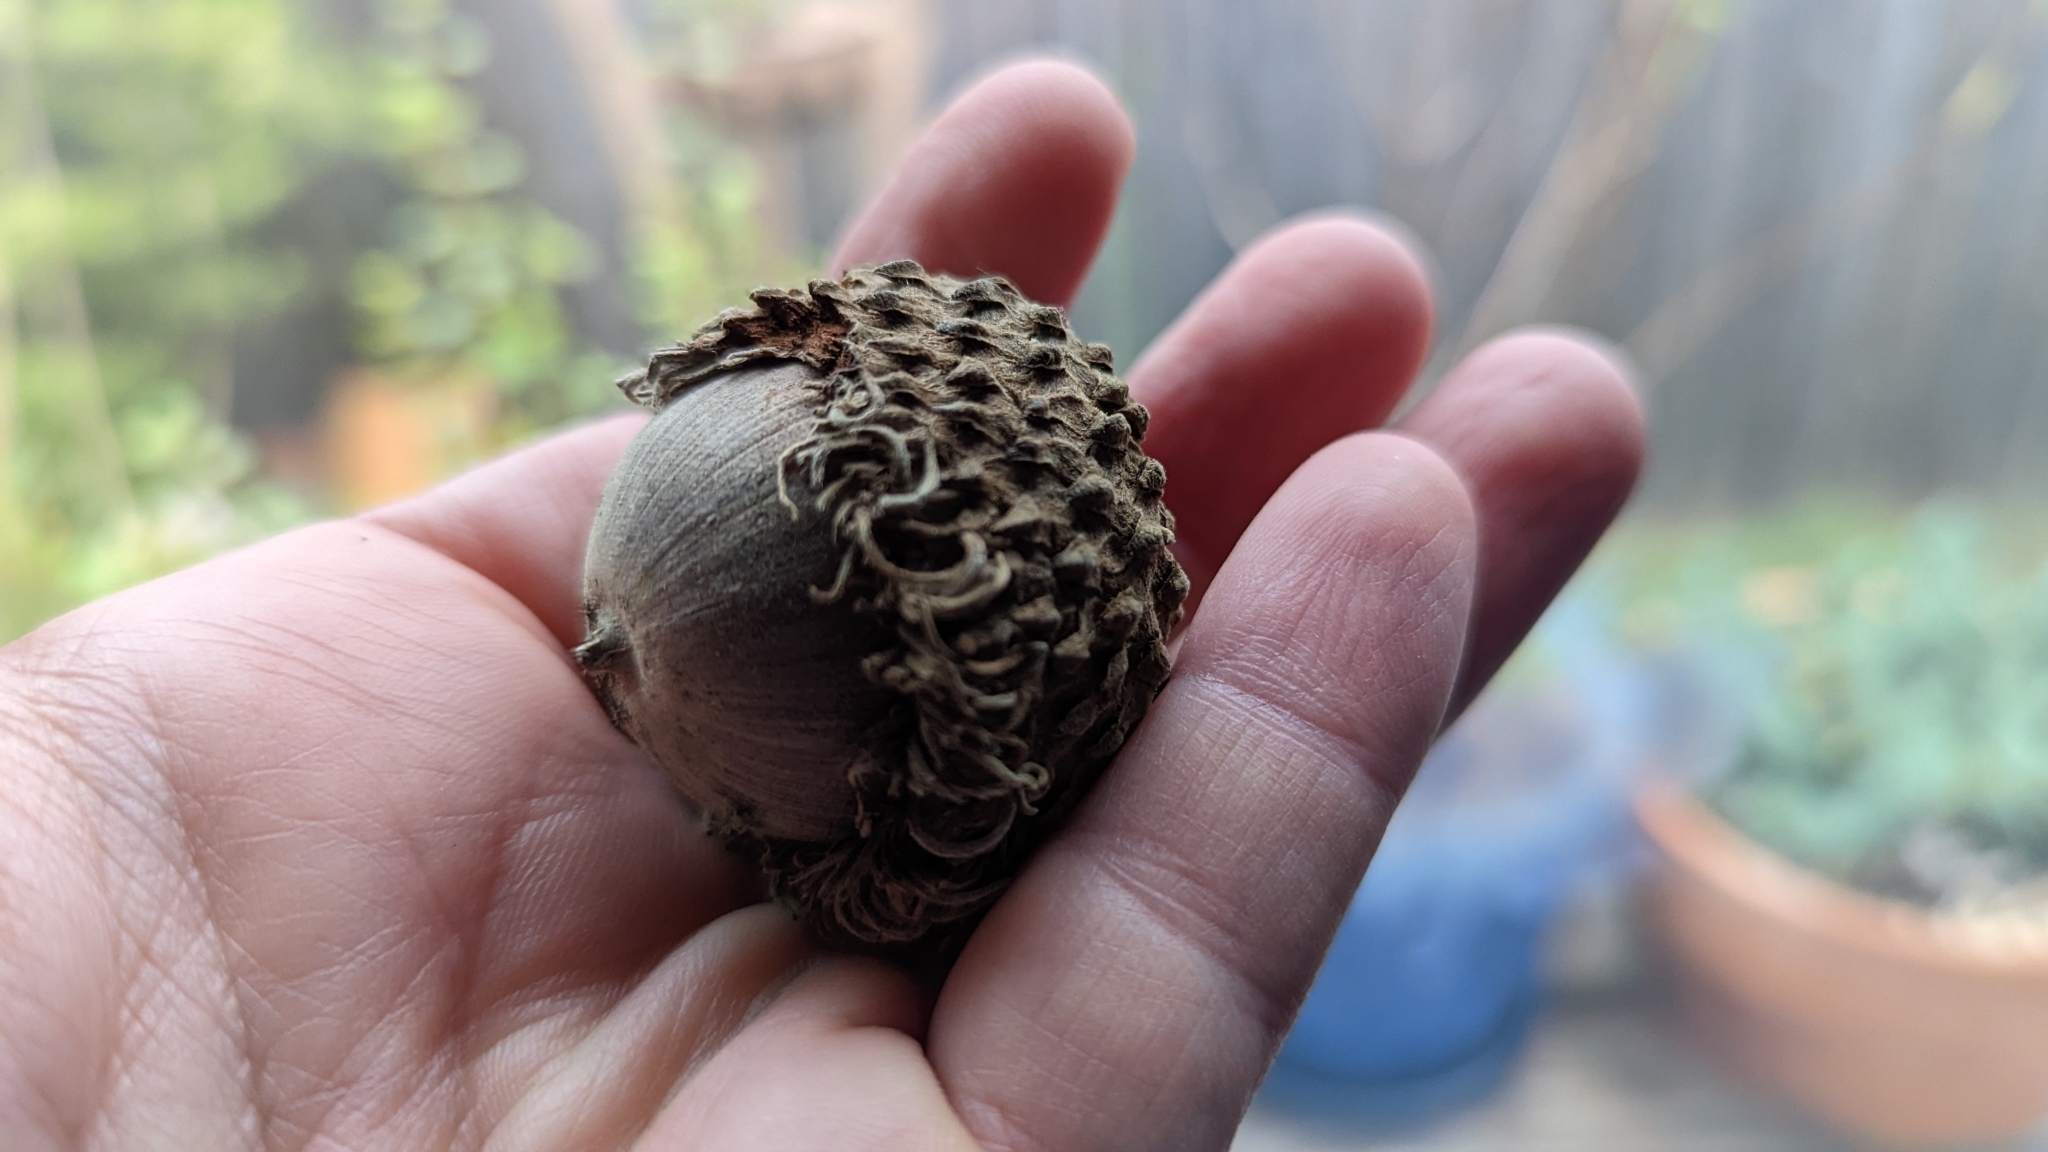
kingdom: Plantae
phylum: Tracheophyta
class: Magnoliopsida
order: Fagales
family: Fagaceae
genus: Quercus
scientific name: Quercus macrocarpa
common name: Bur oak
